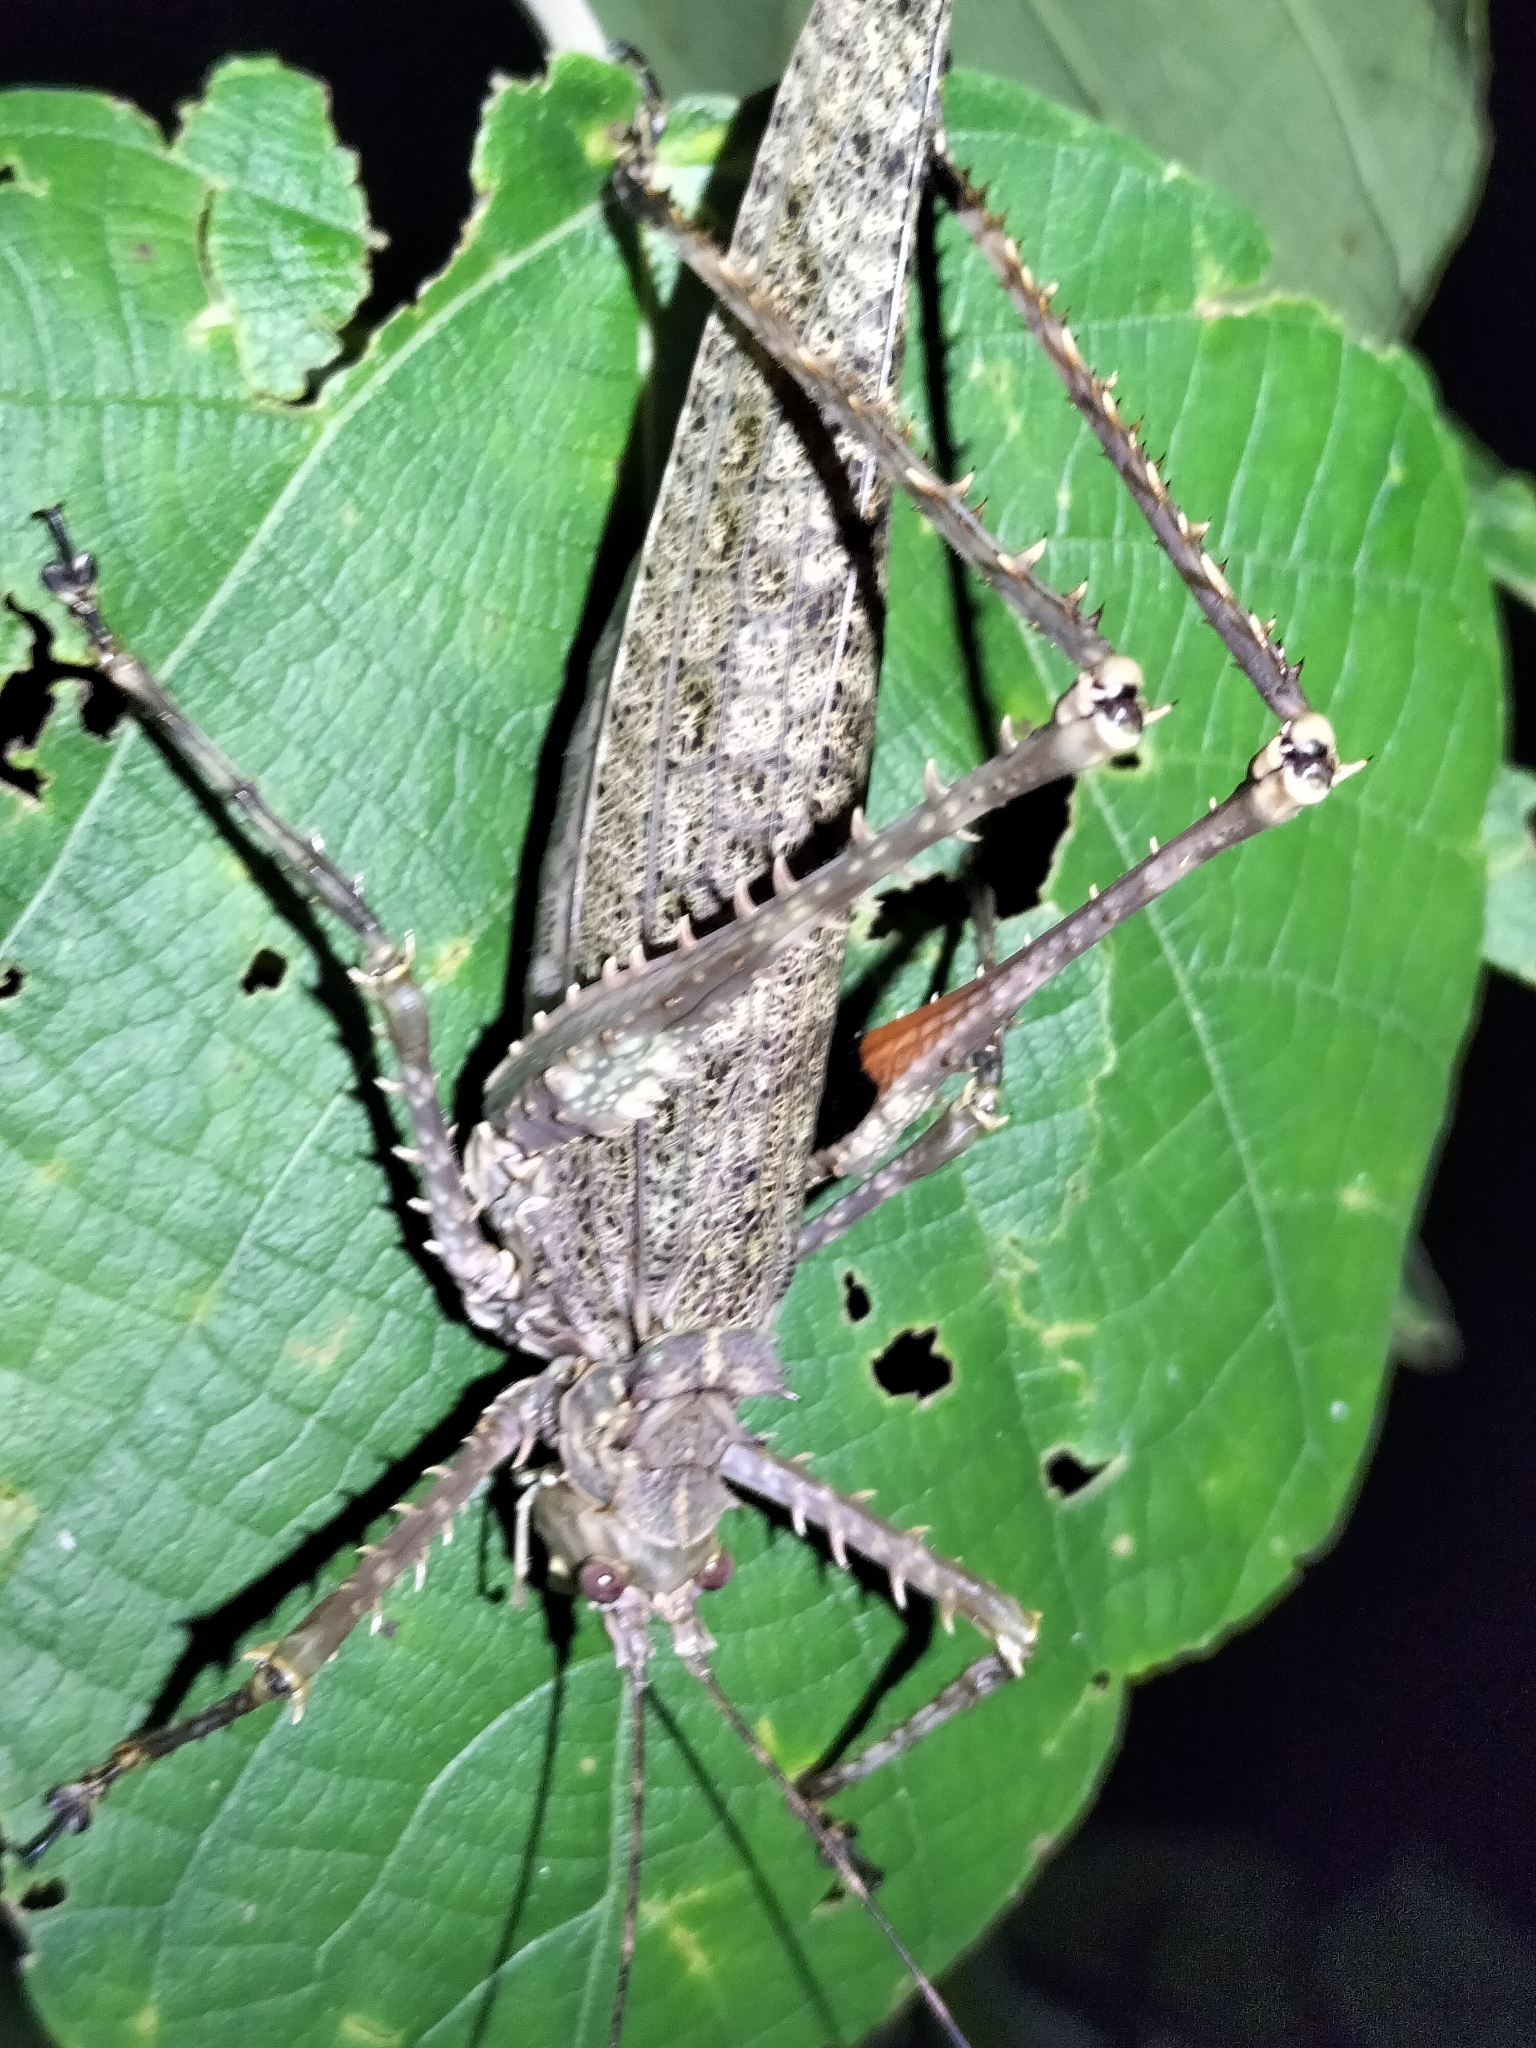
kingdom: Animalia
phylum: Arthropoda
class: Insecta
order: Orthoptera
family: Tettigoniidae
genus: Phricta
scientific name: Phricta spinosa
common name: Giant spiny forest katydid
